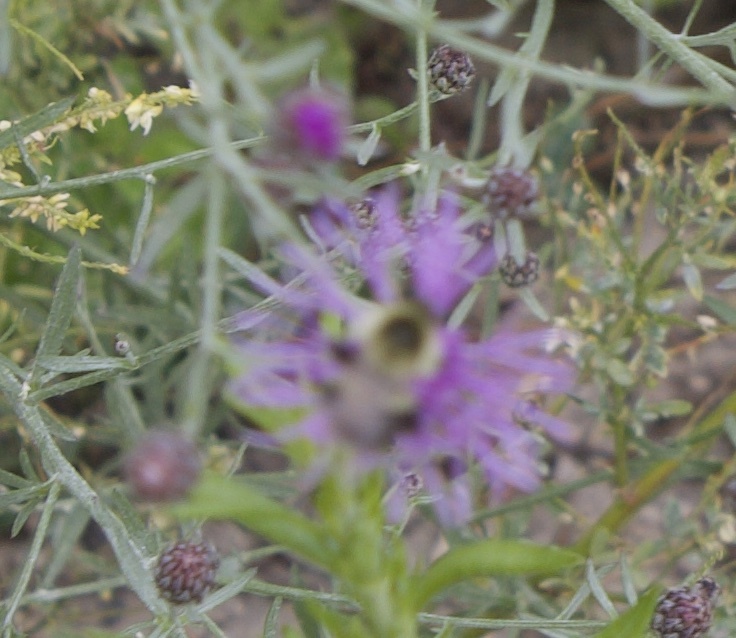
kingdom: Animalia
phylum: Arthropoda
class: Insecta
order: Hymenoptera
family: Apidae
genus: Bombus
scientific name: Bombus impatiens
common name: Common eastern bumble bee
